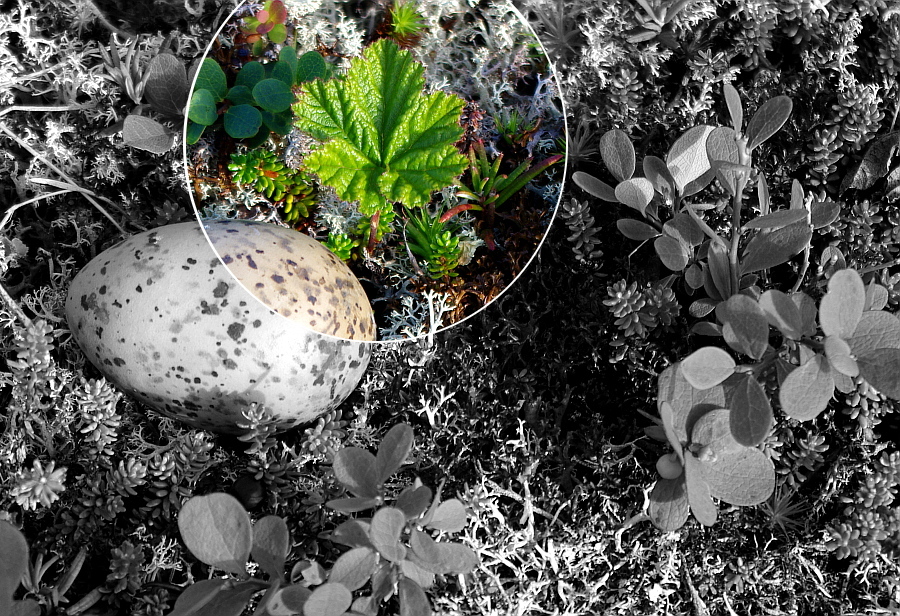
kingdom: Plantae
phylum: Tracheophyta
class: Magnoliopsida
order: Rosales
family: Rosaceae
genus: Rubus
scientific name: Rubus chamaemorus
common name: Cloudberry
